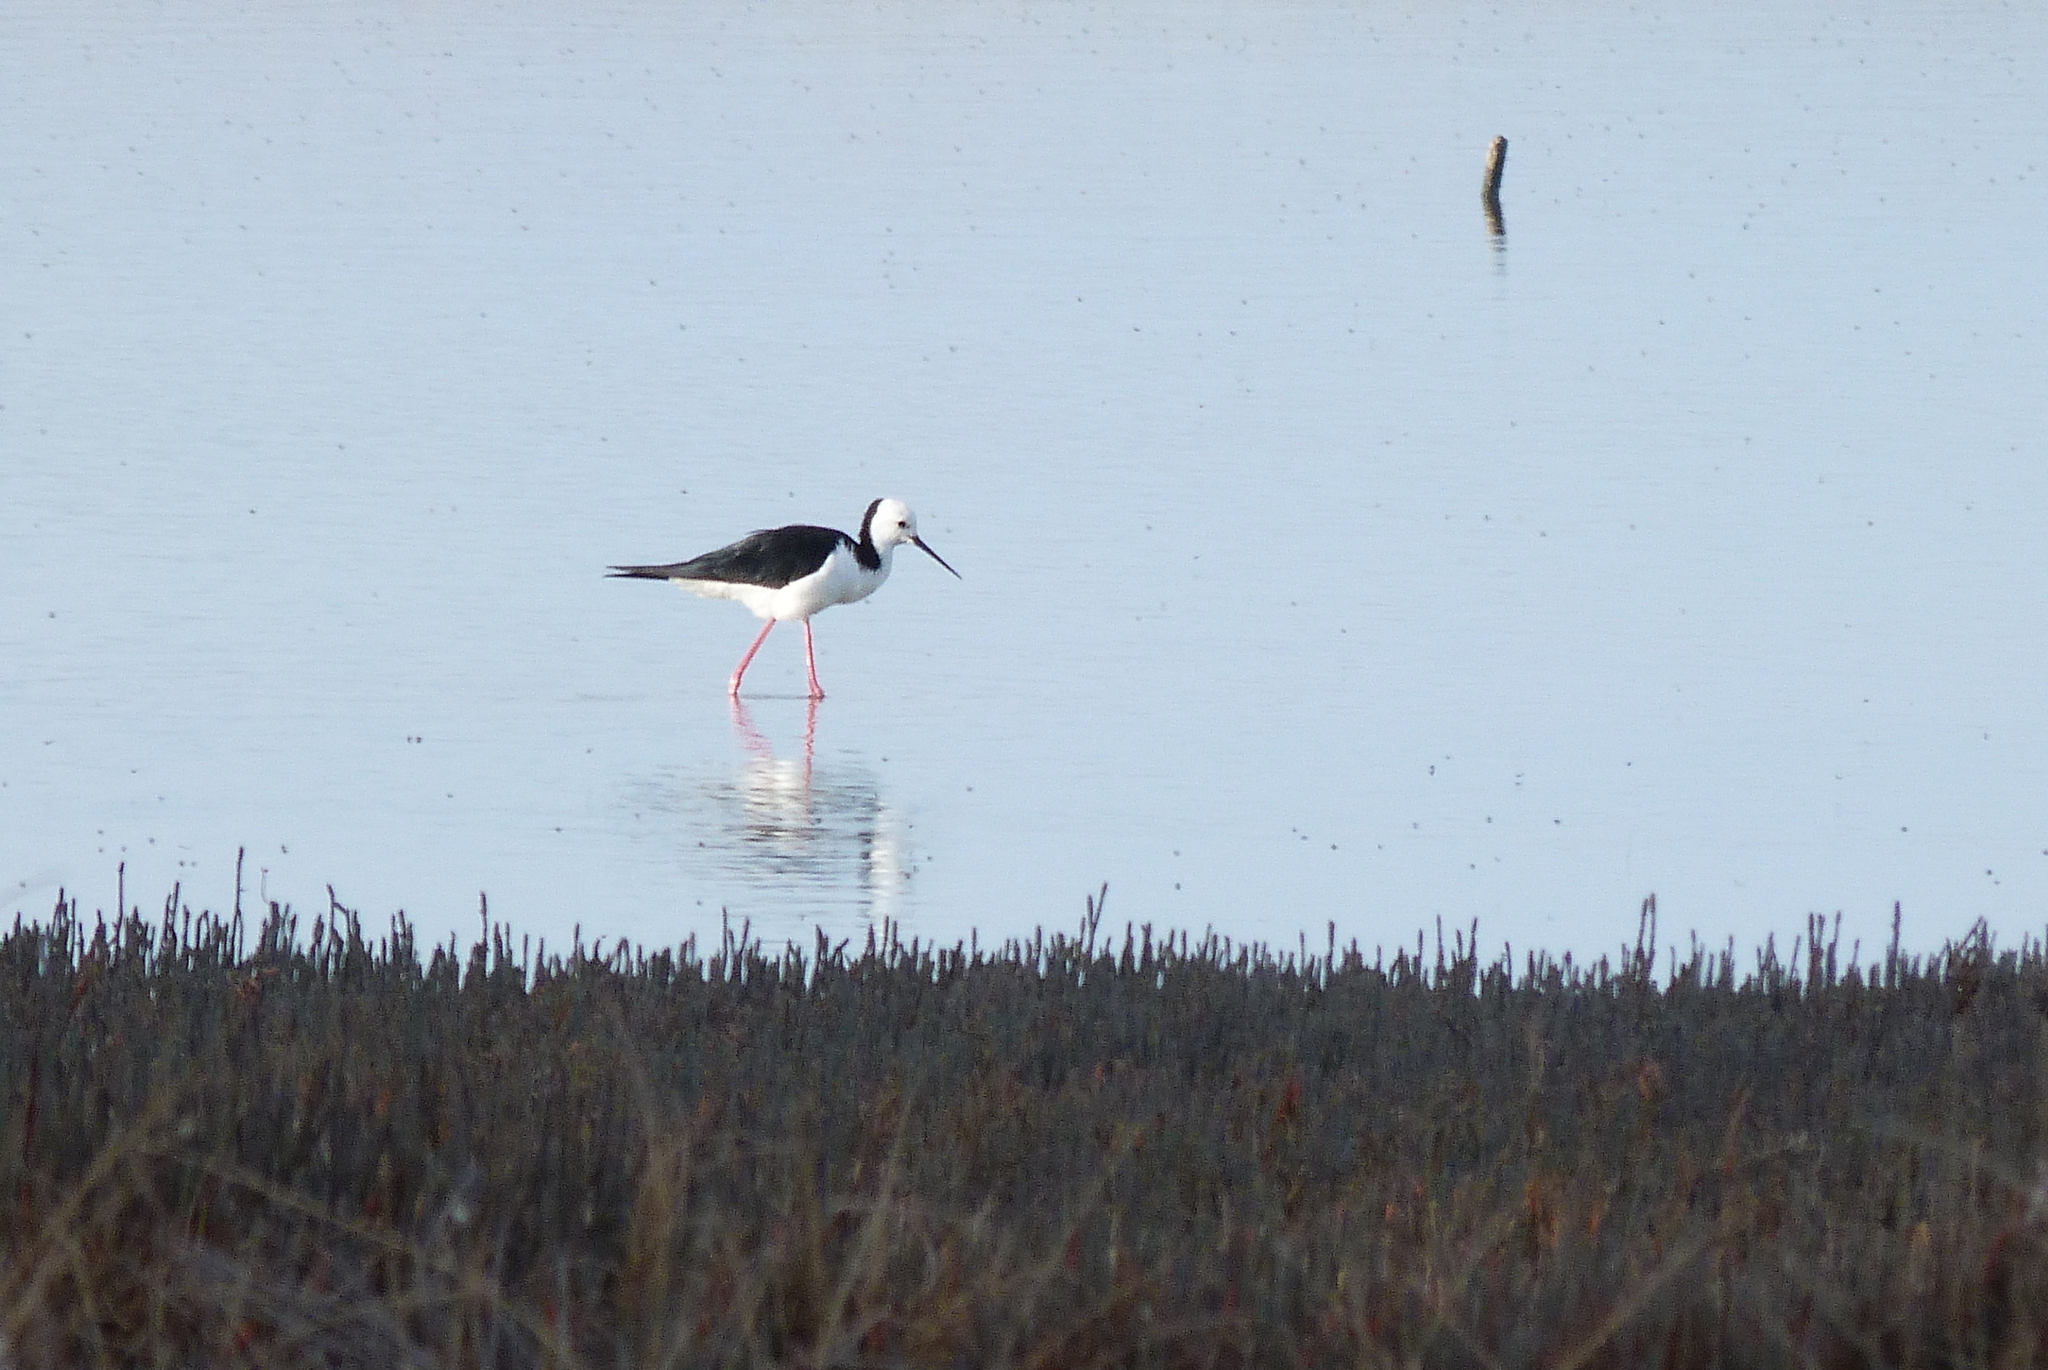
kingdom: Animalia
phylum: Chordata
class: Aves
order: Charadriiformes
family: Recurvirostridae
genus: Himantopus
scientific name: Himantopus leucocephalus
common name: White-headed stilt
